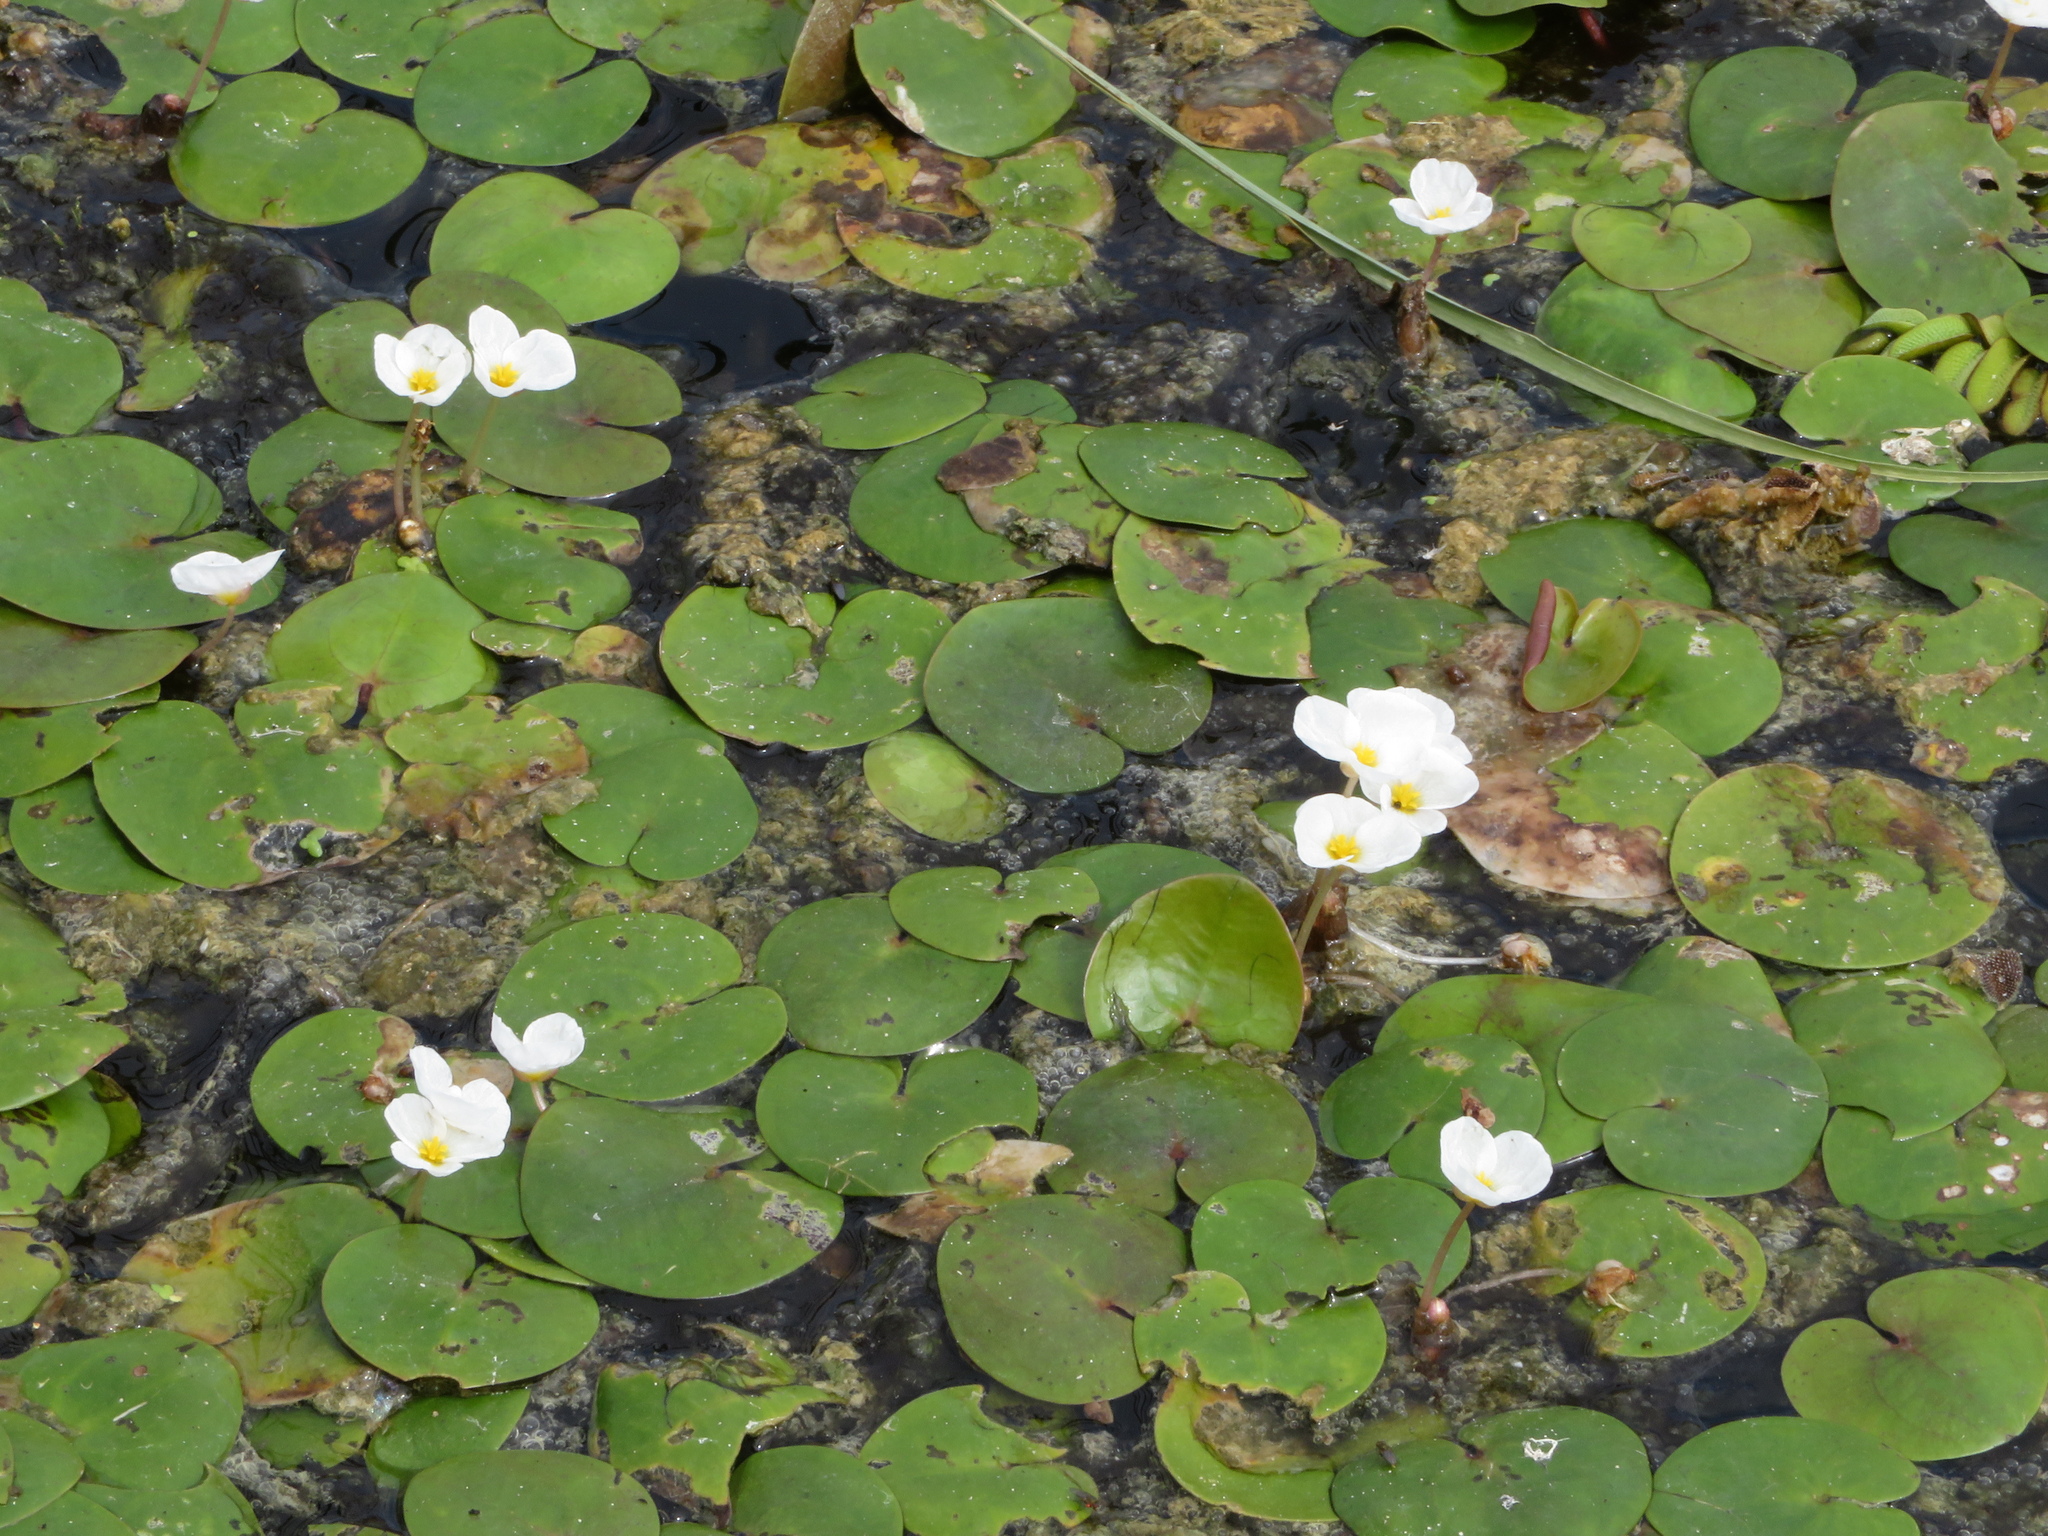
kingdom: Plantae
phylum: Tracheophyta
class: Liliopsida
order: Alismatales
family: Hydrocharitaceae
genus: Hydrocharis
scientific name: Hydrocharis morsus-ranae
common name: Frogbit
